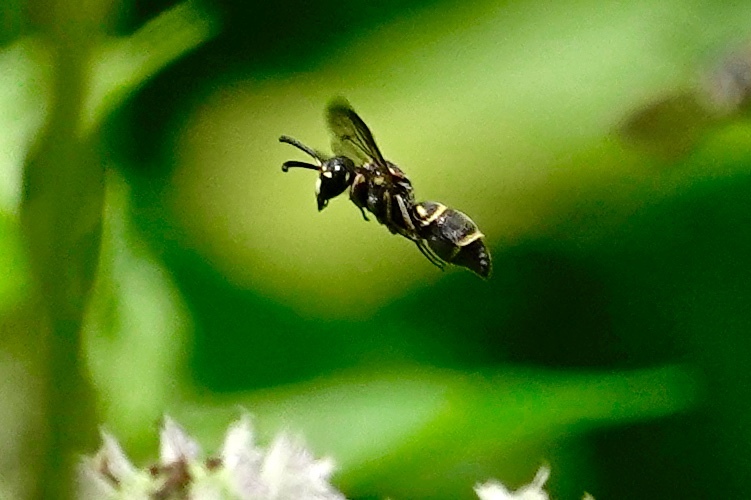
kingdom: Animalia
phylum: Arthropoda
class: Insecta
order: Hymenoptera
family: Eumenidae
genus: Parancistrocerus
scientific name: Parancistrocerus fulvipes
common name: Potter wasp
